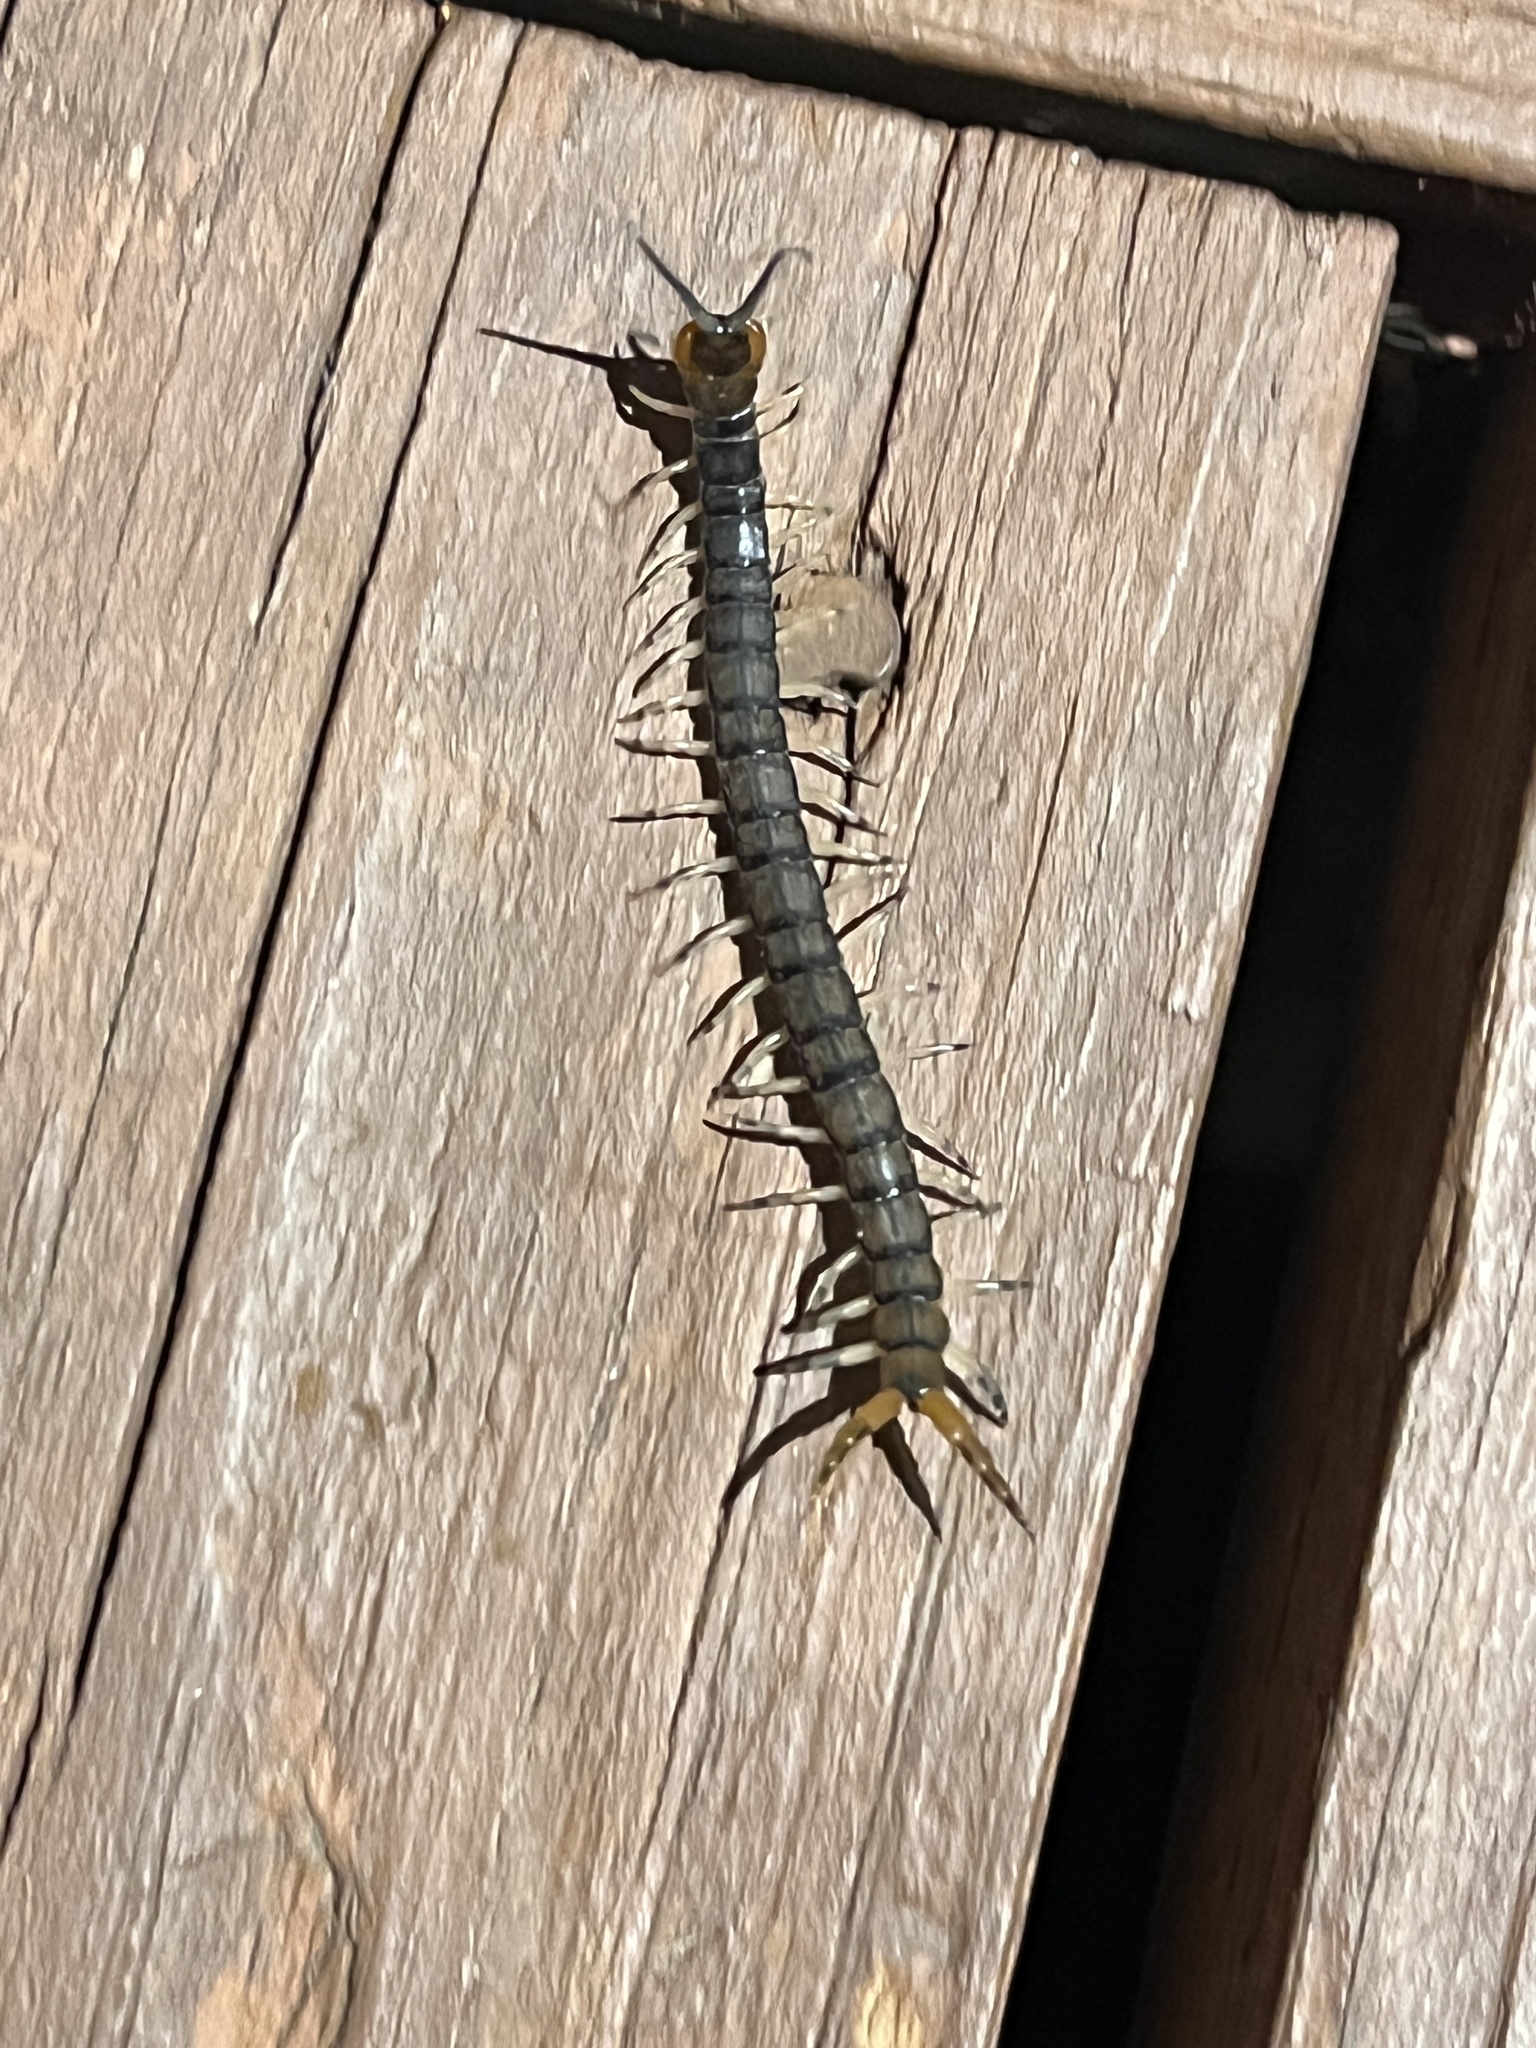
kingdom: Animalia
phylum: Arthropoda
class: Chilopoda
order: Scolopendromorpha
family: Scolopendridae
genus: Hemiscolopendra
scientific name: Hemiscolopendra marginata
